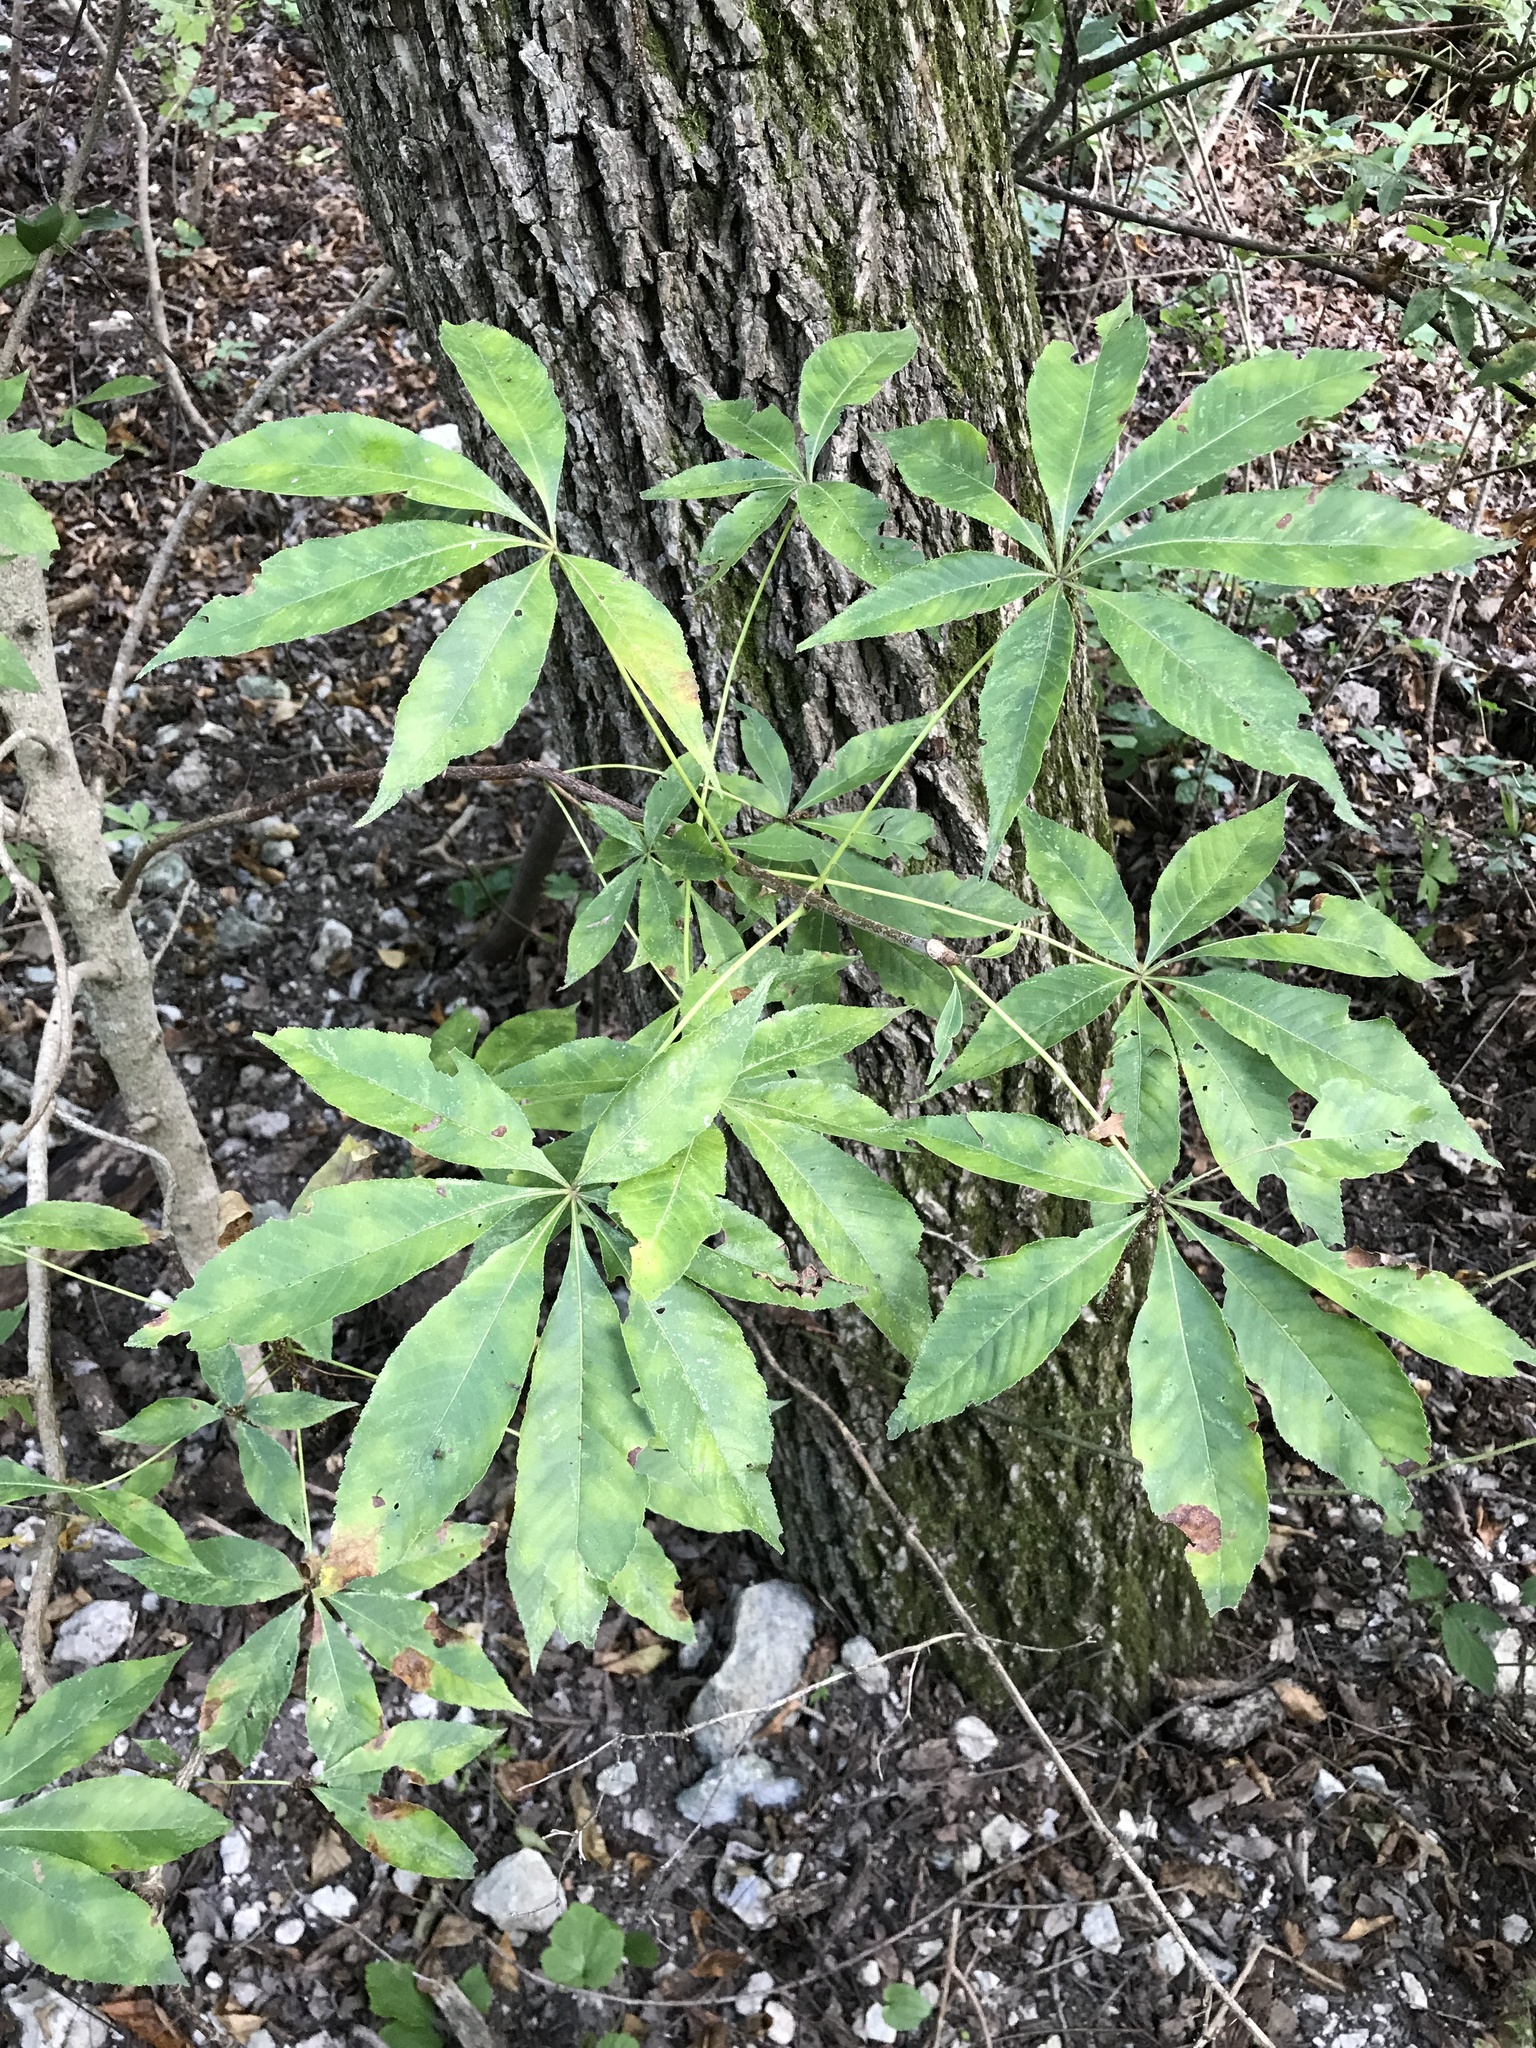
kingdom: Plantae
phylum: Tracheophyta
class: Magnoliopsida
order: Sapindales
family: Sapindaceae
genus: Aesculus
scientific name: Aesculus glabra
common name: Ohio buckeye
